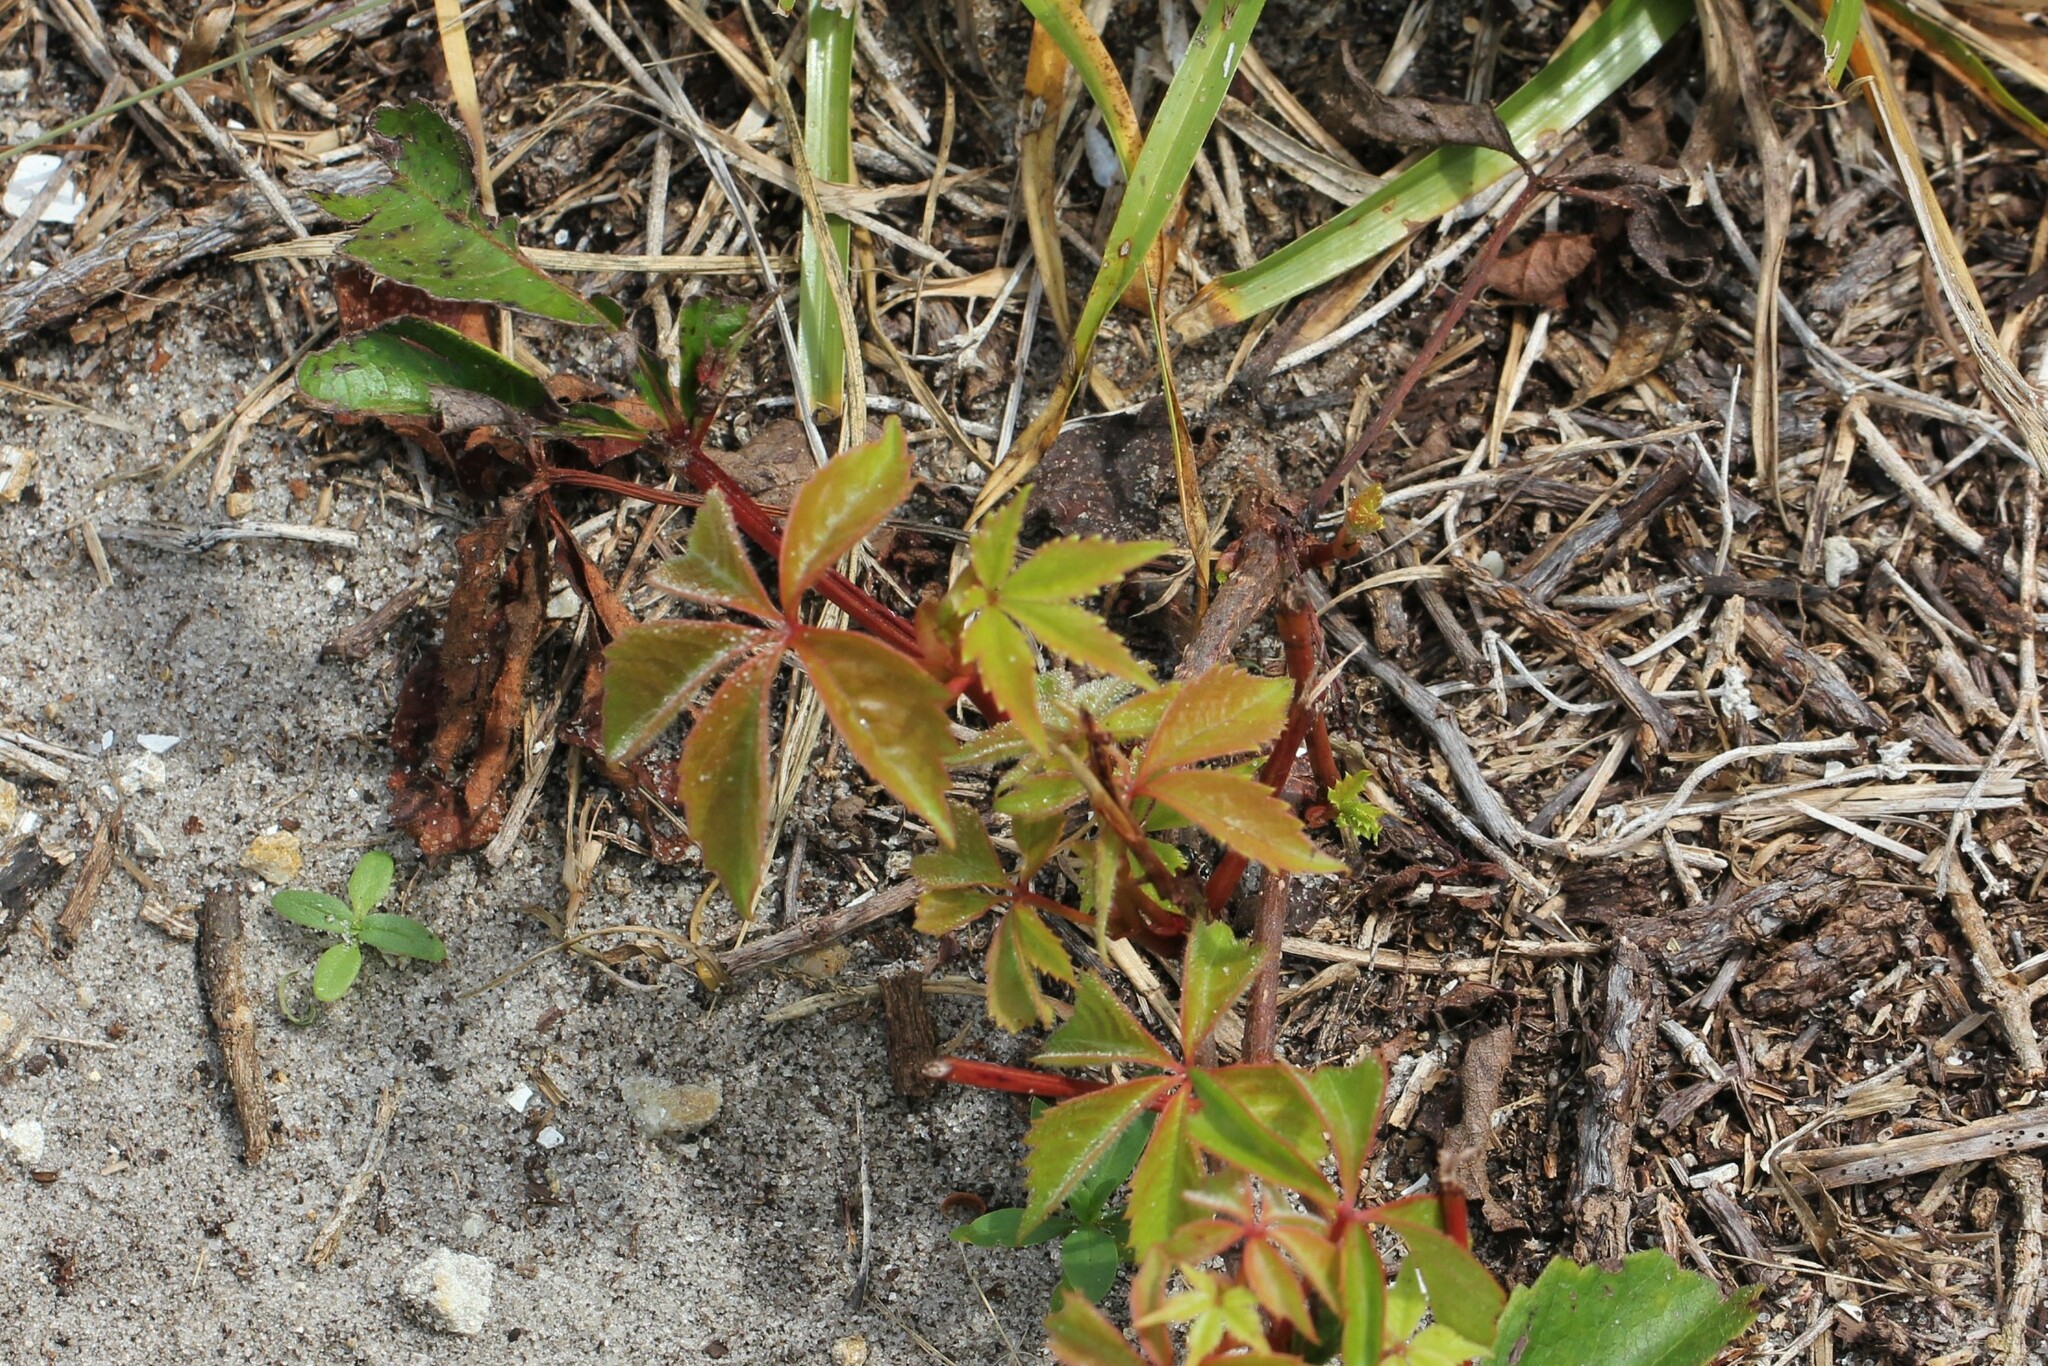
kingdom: Plantae
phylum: Tracheophyta
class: Magnoliopsida
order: Vitales
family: Vitaceae
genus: Parthenocissus
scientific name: Parthenocissus quinquefolia
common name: Virginia-creeper
